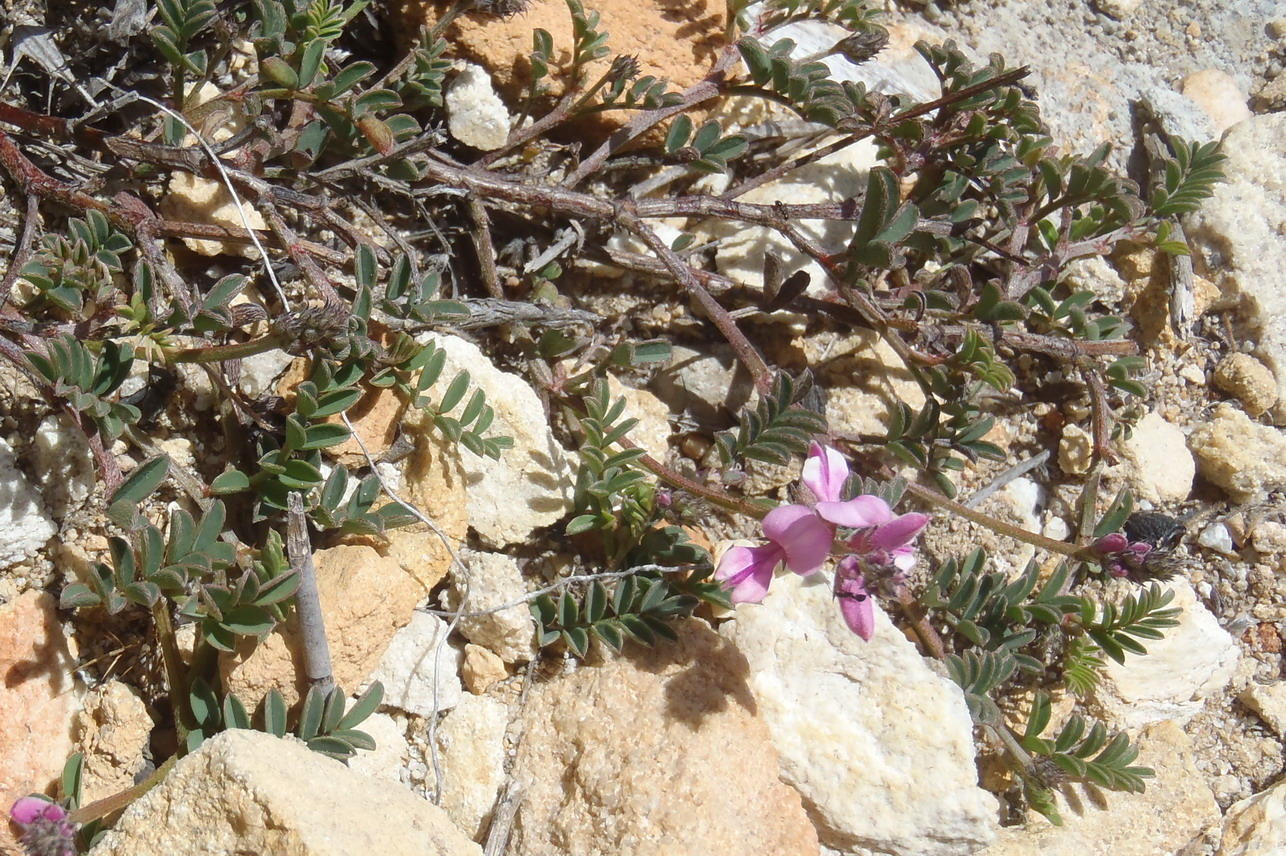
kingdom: Plantae
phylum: Tracheophyta
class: Magnoliopsida
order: Fabales
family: Fabaceae
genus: Indigofera
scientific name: Indigofera declinata
